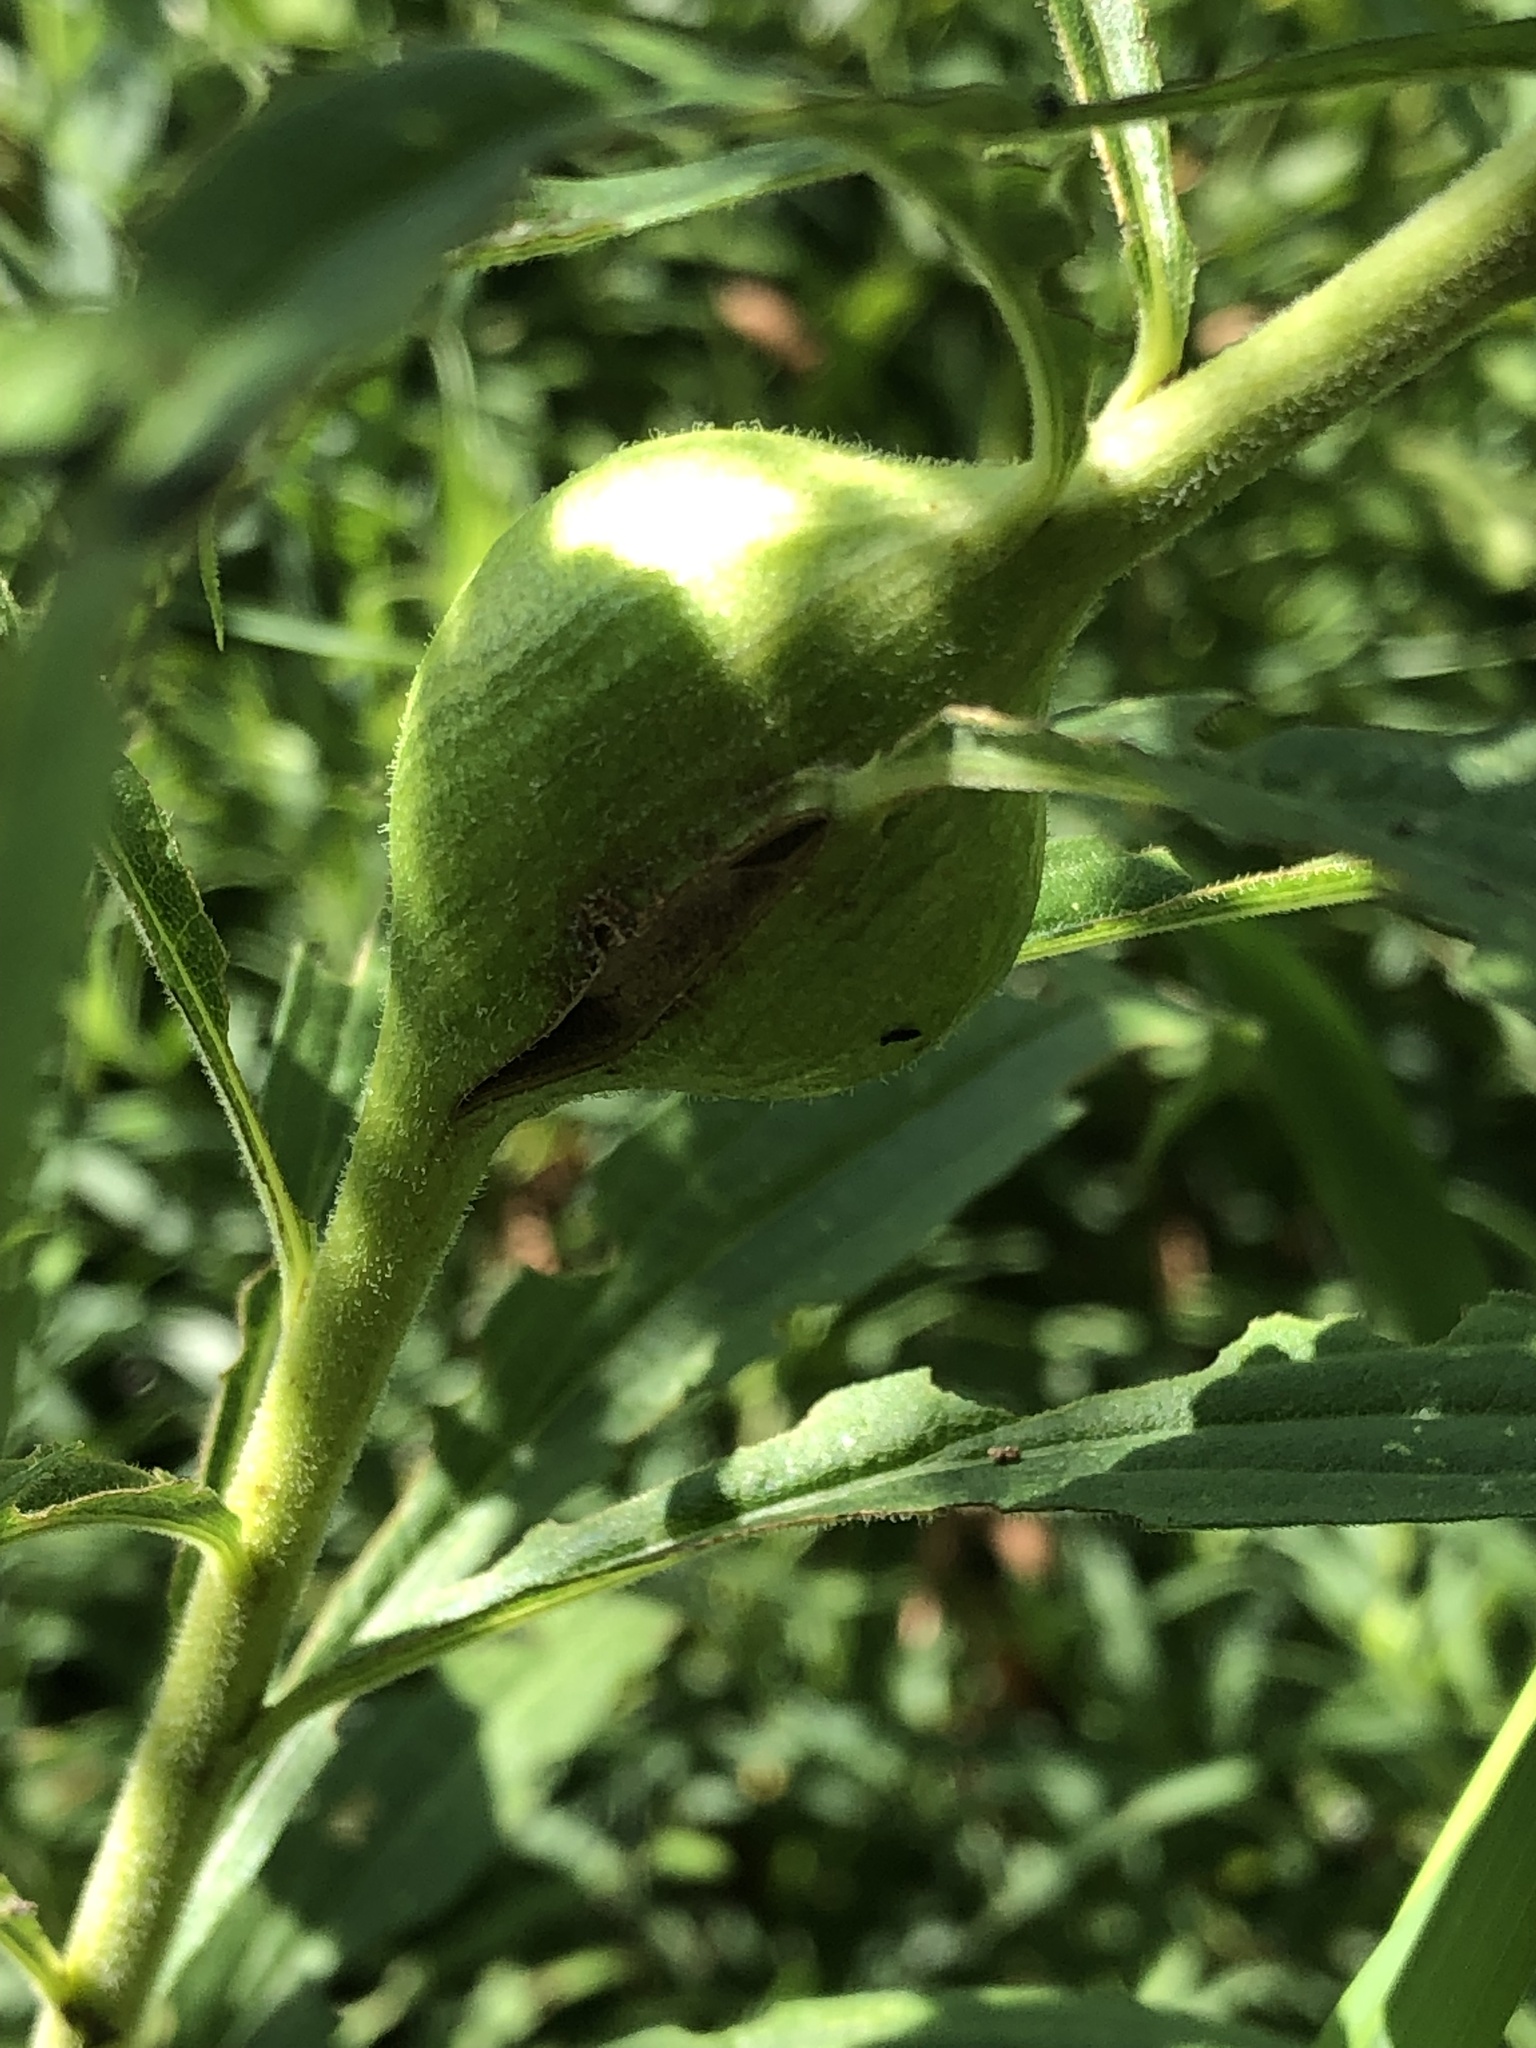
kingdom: Animalia
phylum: Arthropoda
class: Insecta
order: Diptera
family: Tephritidae
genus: Eurosta
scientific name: Eurosta solidaginis
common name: Goldenrod gall fly
